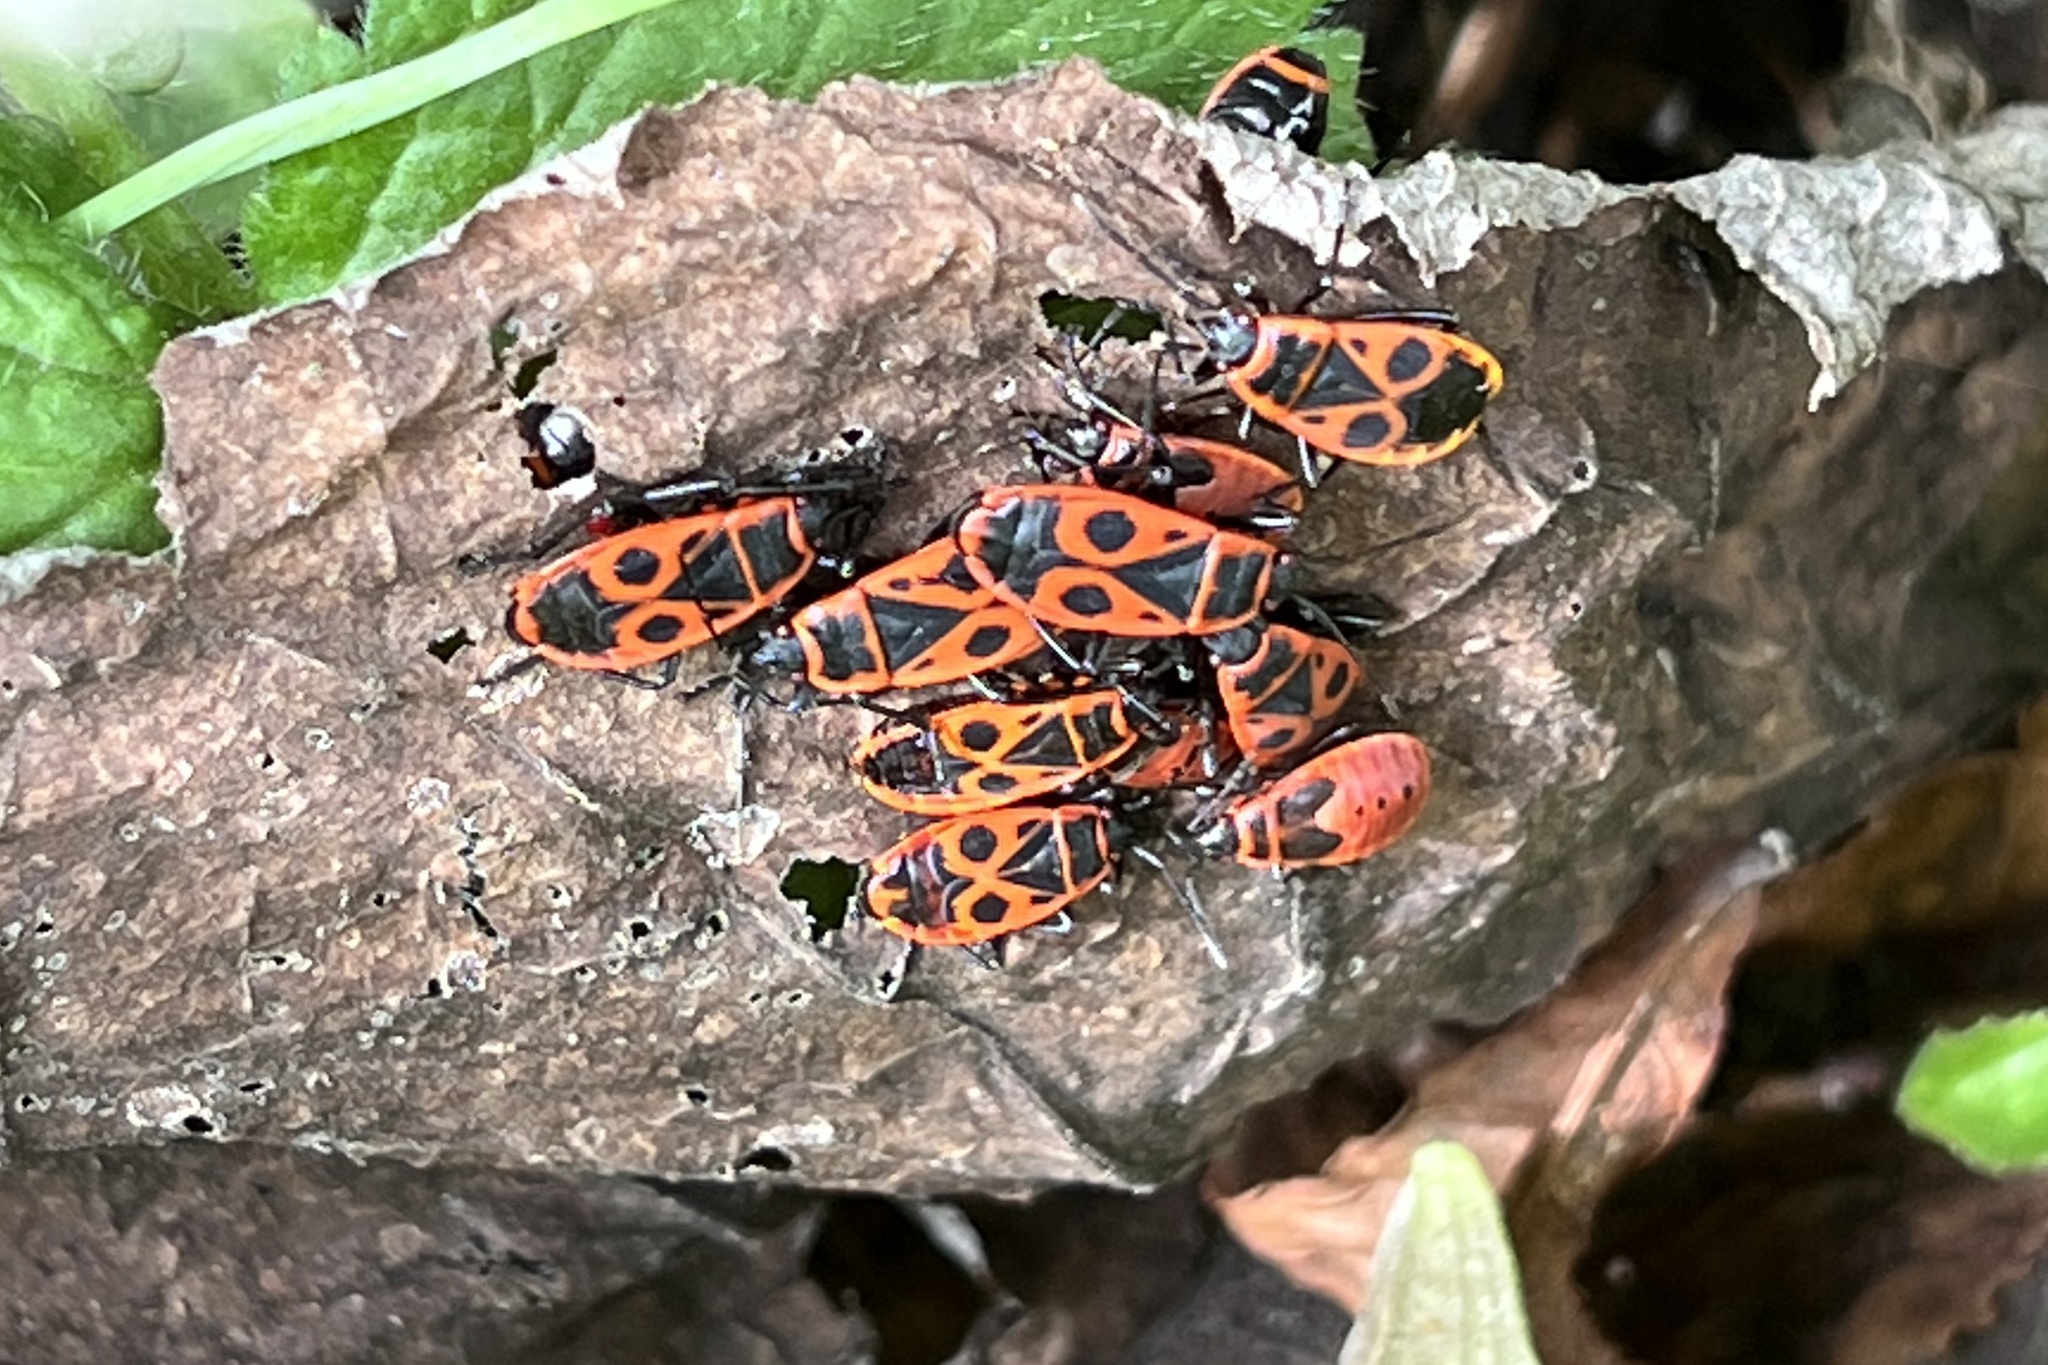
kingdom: Animalia
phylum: Arthropoda
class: Insecta
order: Hemiptera
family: Pyrrhocoridae
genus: Pyrrhocoris
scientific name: Pyrrhocoris apterus
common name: Firebug
